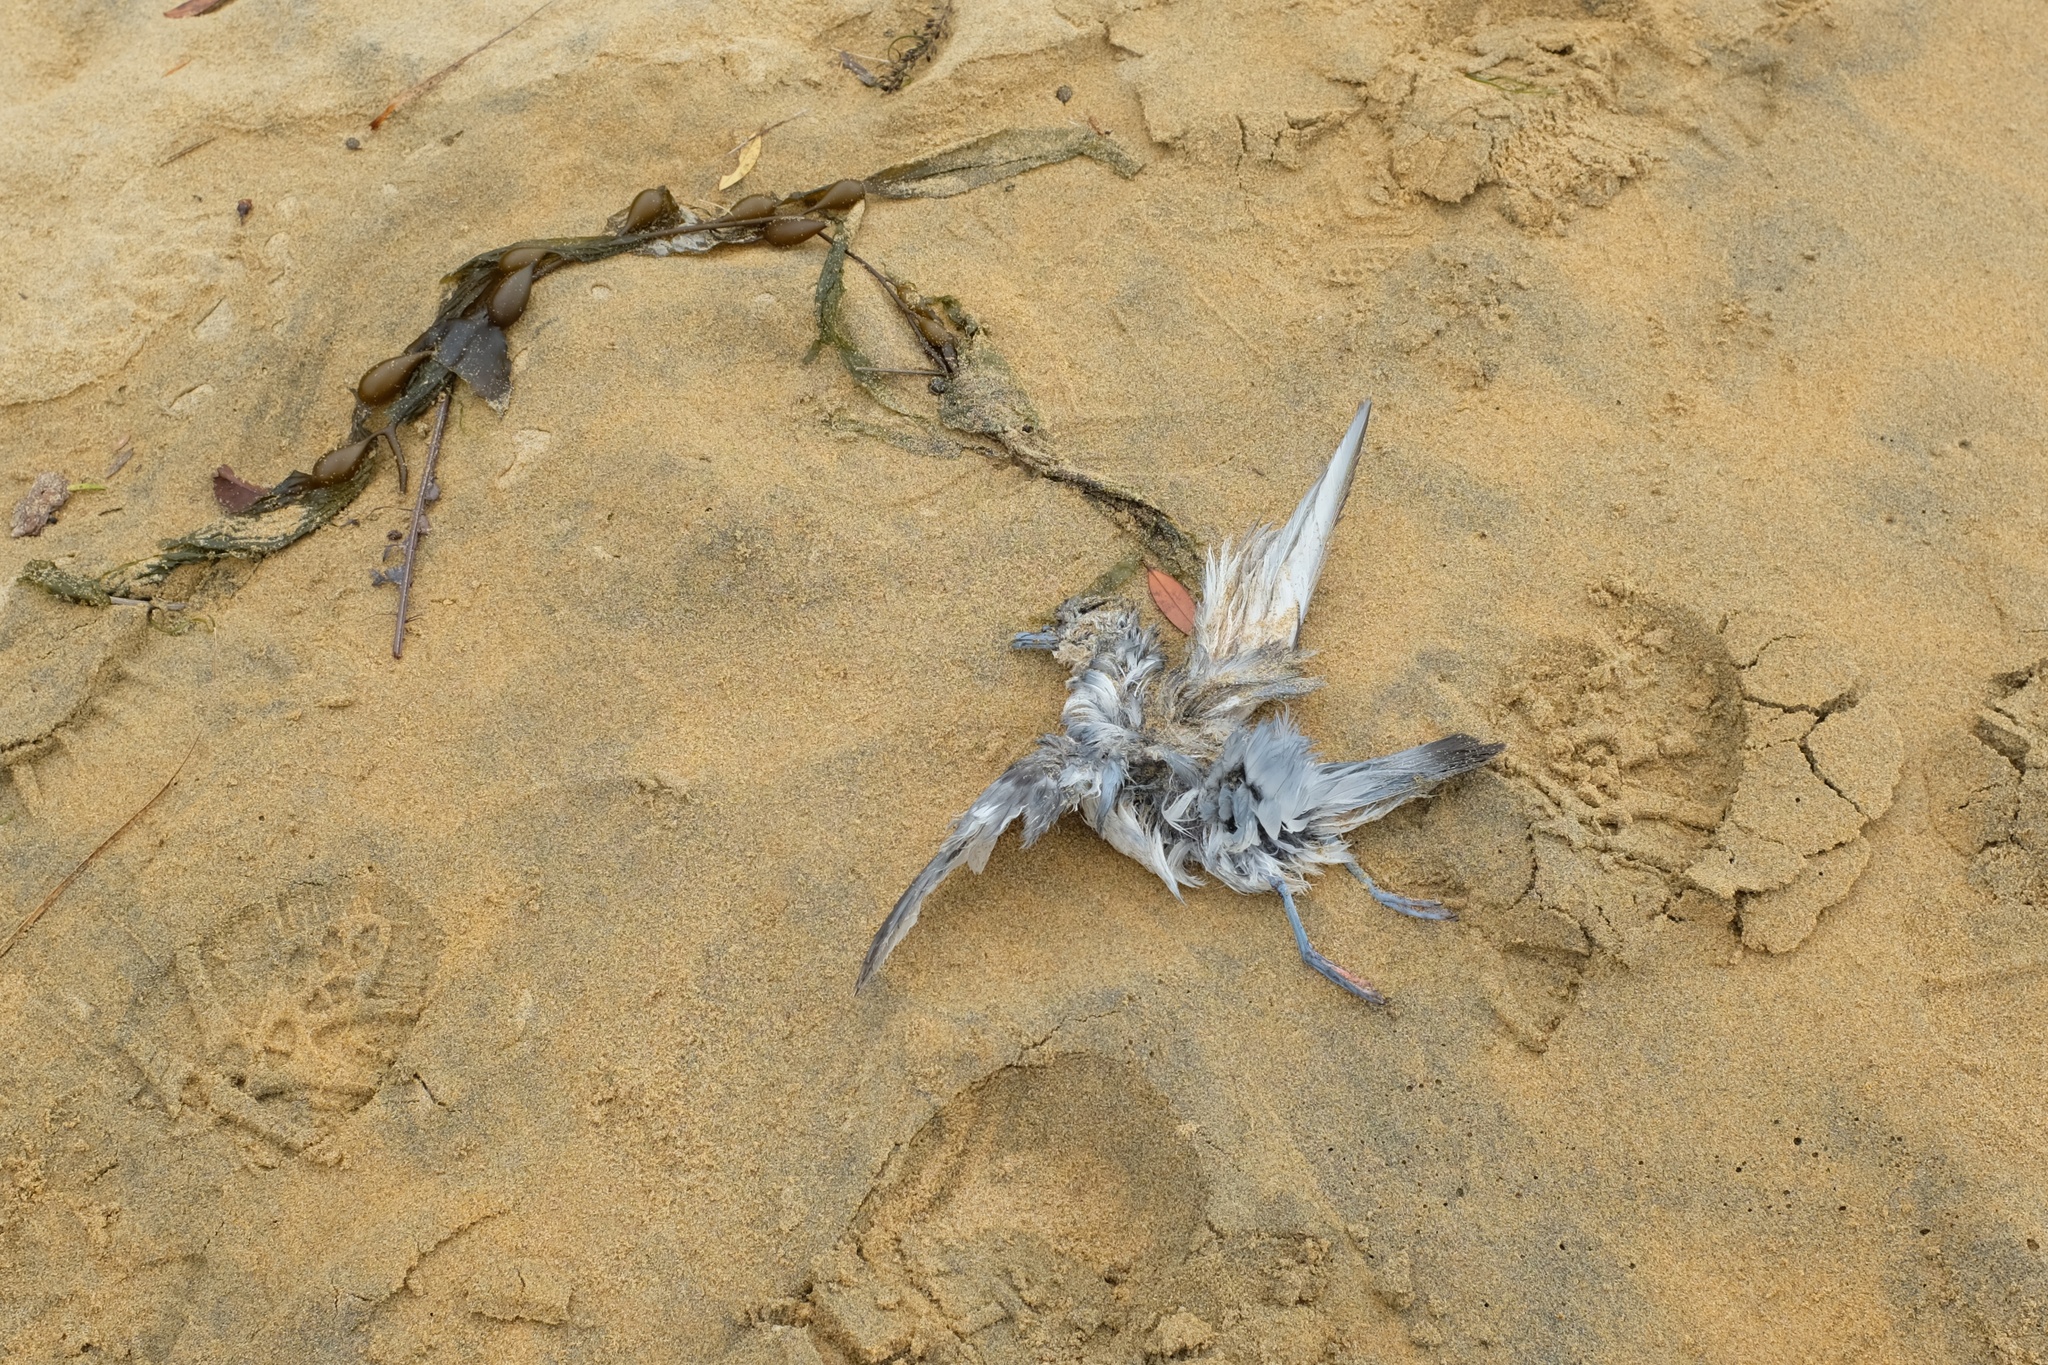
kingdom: Animalia
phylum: Chordata
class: Aves
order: Procellariiformes
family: Procellariidae
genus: Pachyptila
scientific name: Pachyptila turtur
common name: Fairy prion
